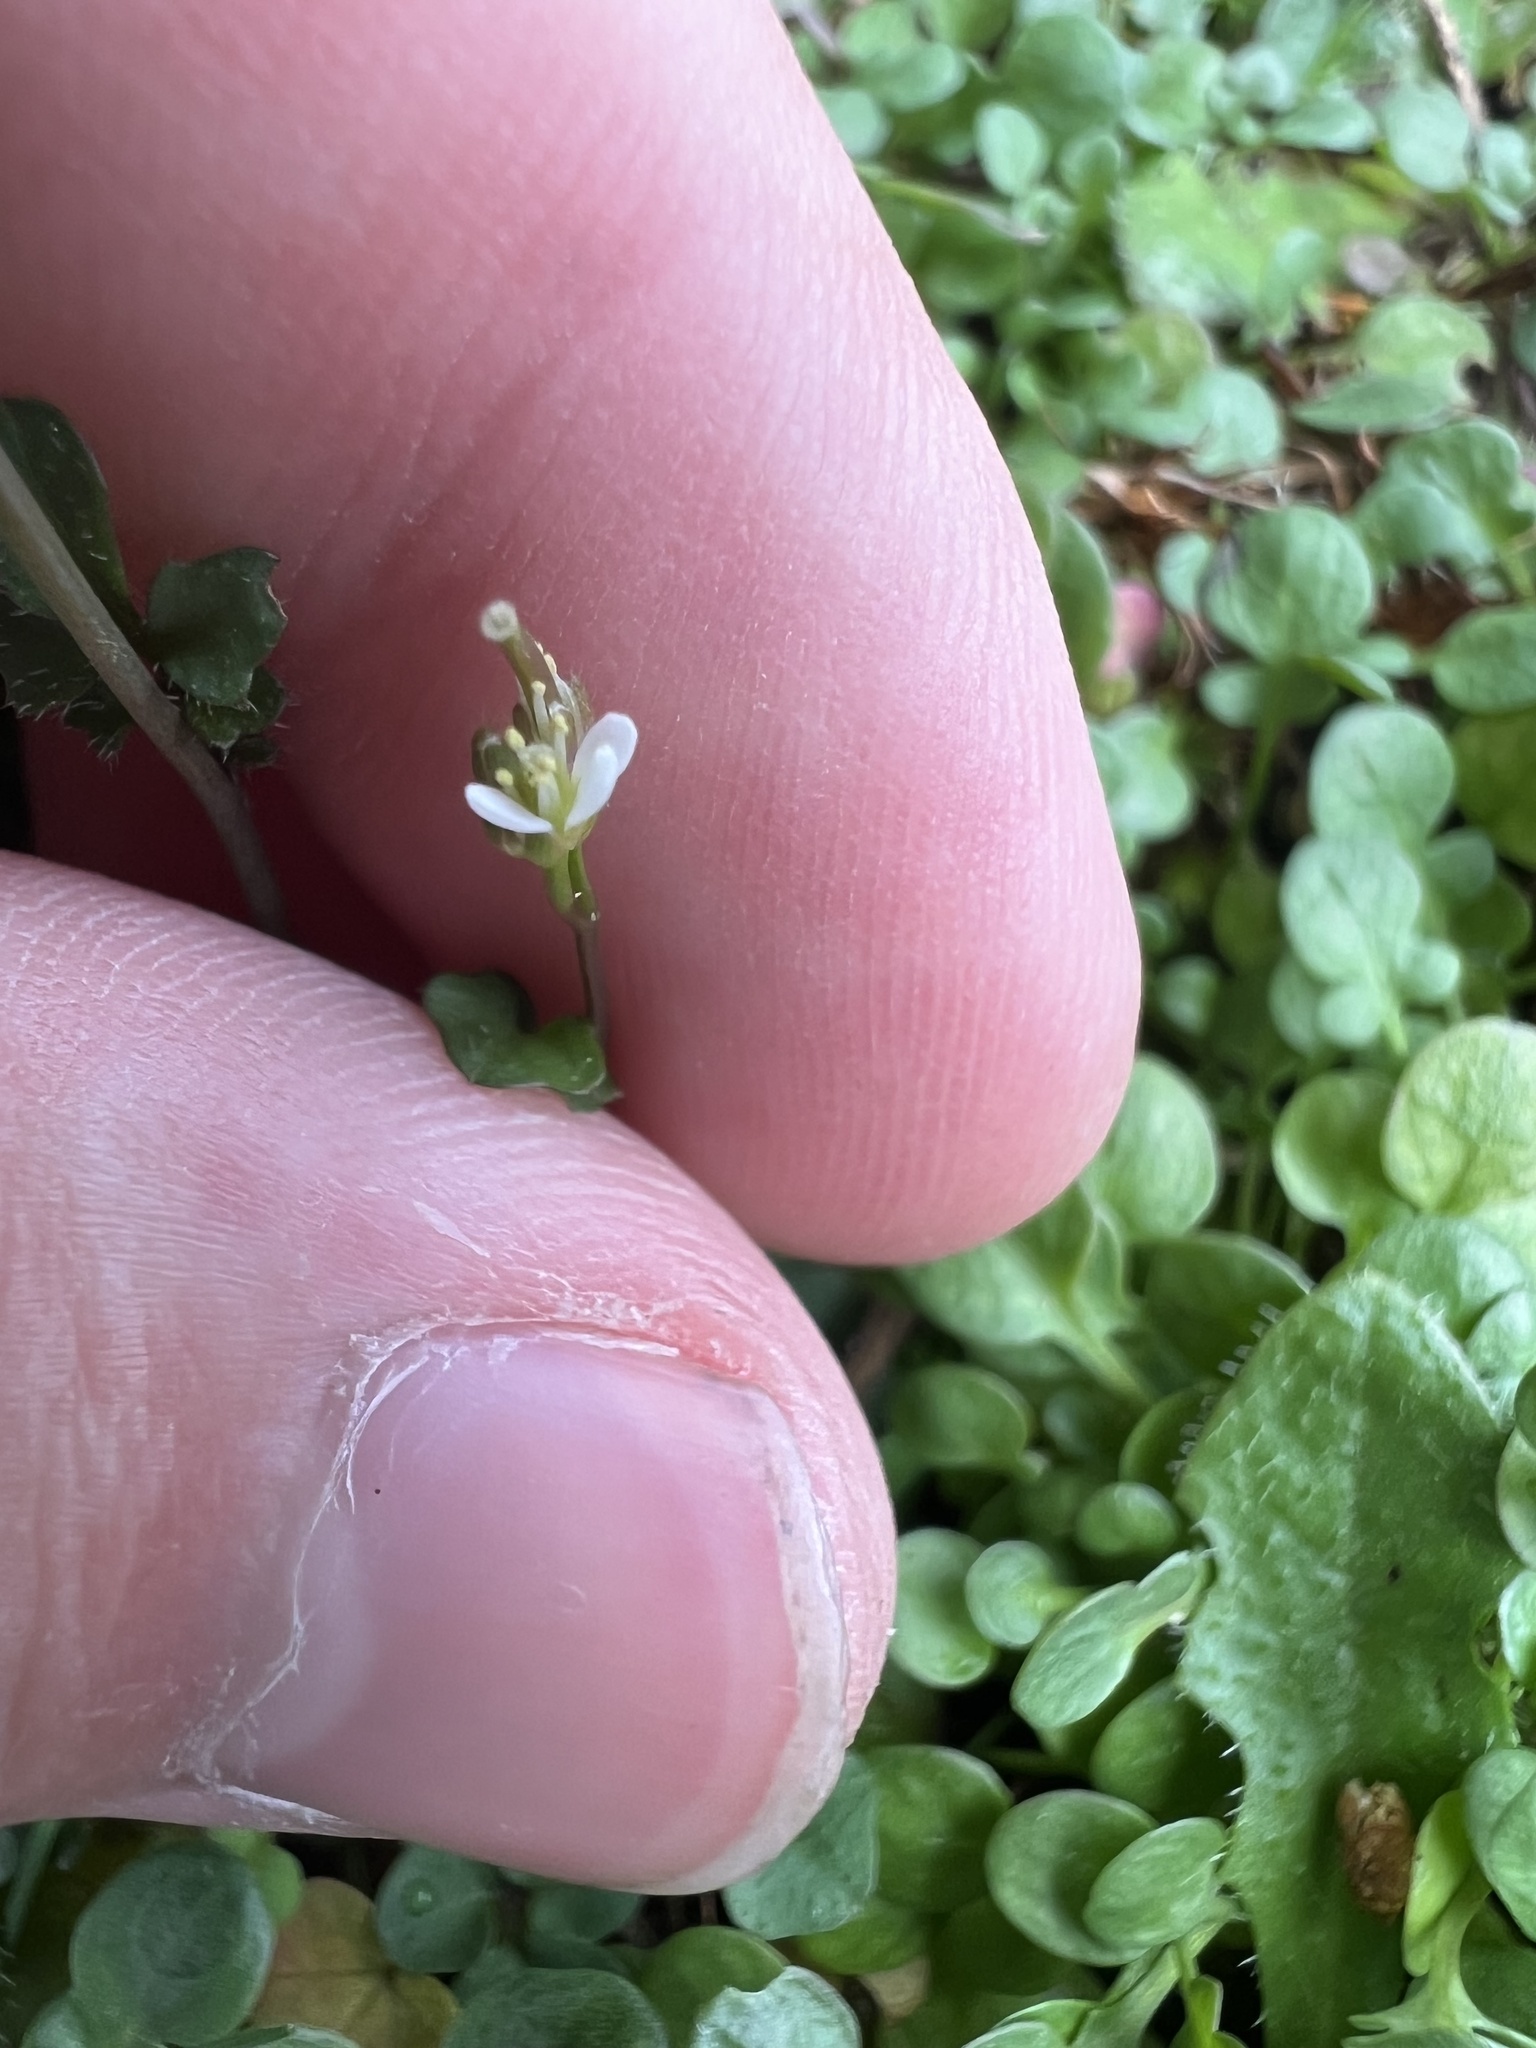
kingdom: Plantae
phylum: Tracheophyta
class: Magnoliopsida
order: Brassicales
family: Brassicaceae
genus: Cardamine
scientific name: Cardamine hirsuta
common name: Hairy bittercress
